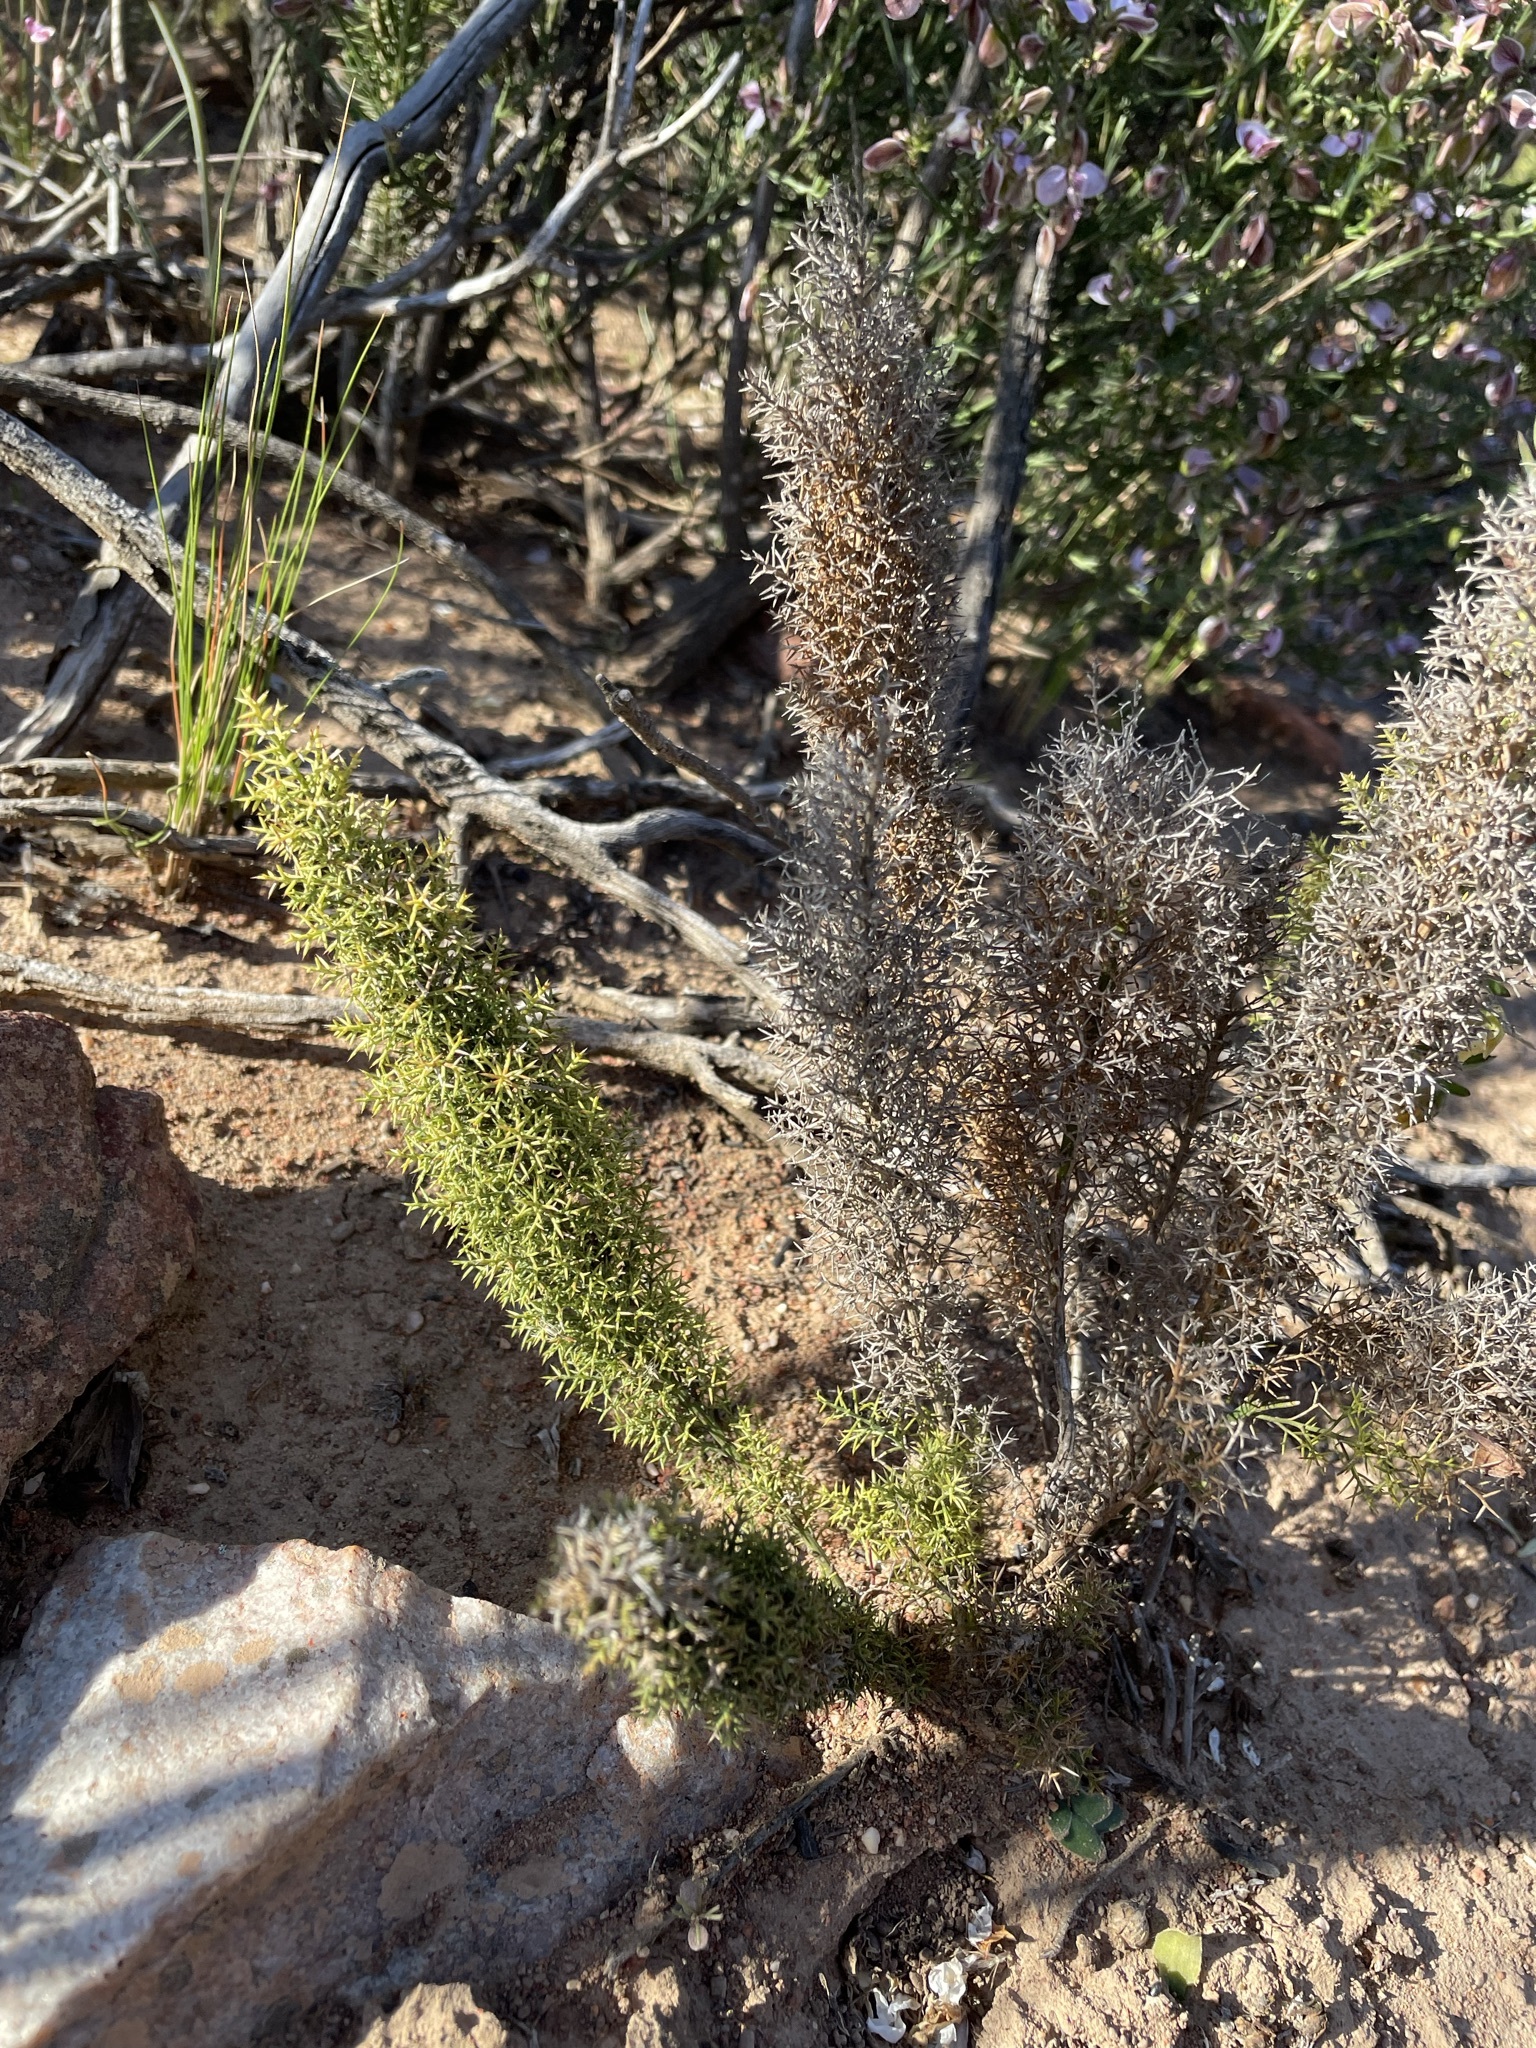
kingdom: Plantae
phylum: Tracheophyta
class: Liliopsida
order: Asparagales
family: Asparagaceae
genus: Asparagus
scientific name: Asparagus oliveri
